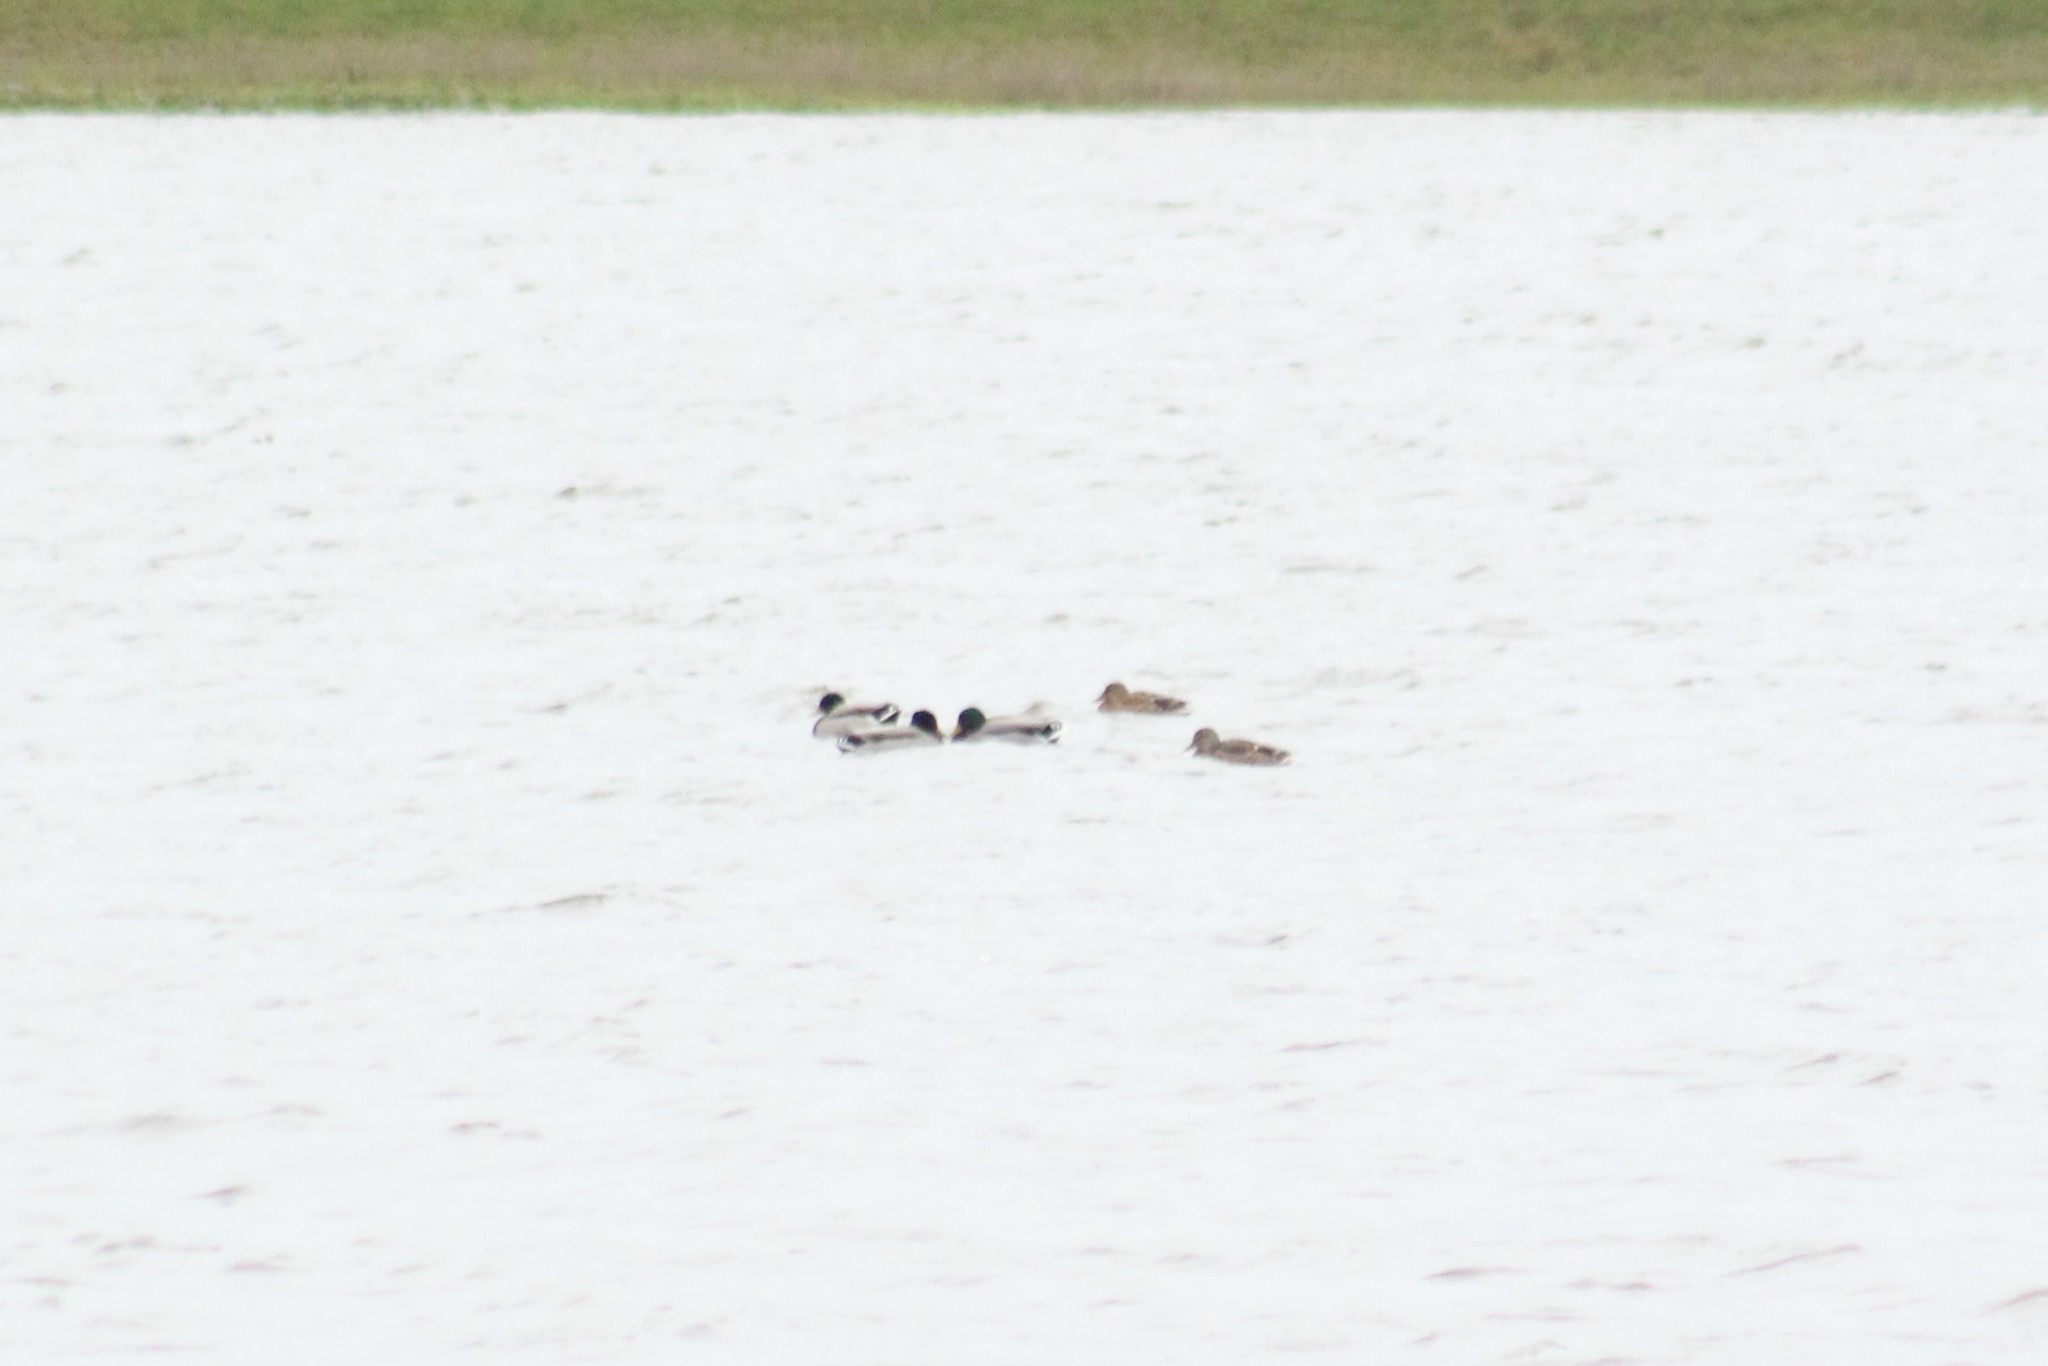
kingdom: Animalia
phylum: Chordata
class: Aves
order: Anseriformes
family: Anatidae
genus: Anas
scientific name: Anas platyrhynchos
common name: Mallard
